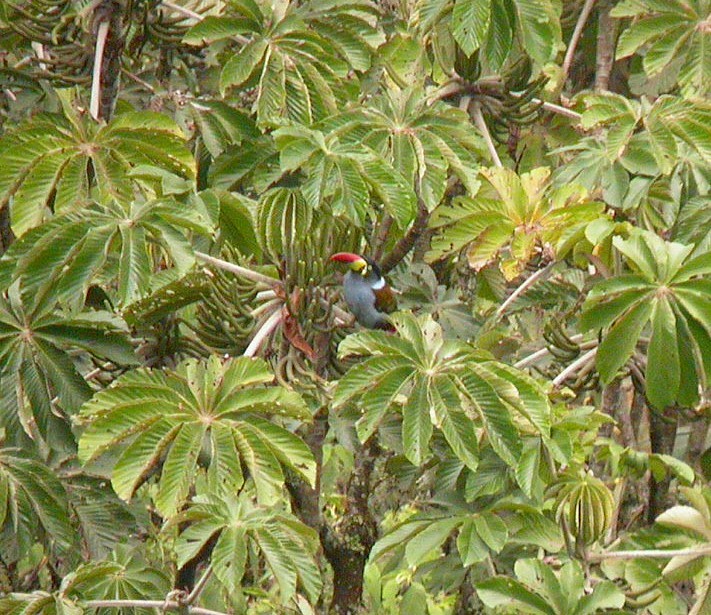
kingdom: Animalia
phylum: Chordata
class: Aves
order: Piciformes
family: Ramphastidae
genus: Andigena
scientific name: Andigena hypoglauca
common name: Grey-breasted mountain toucan
